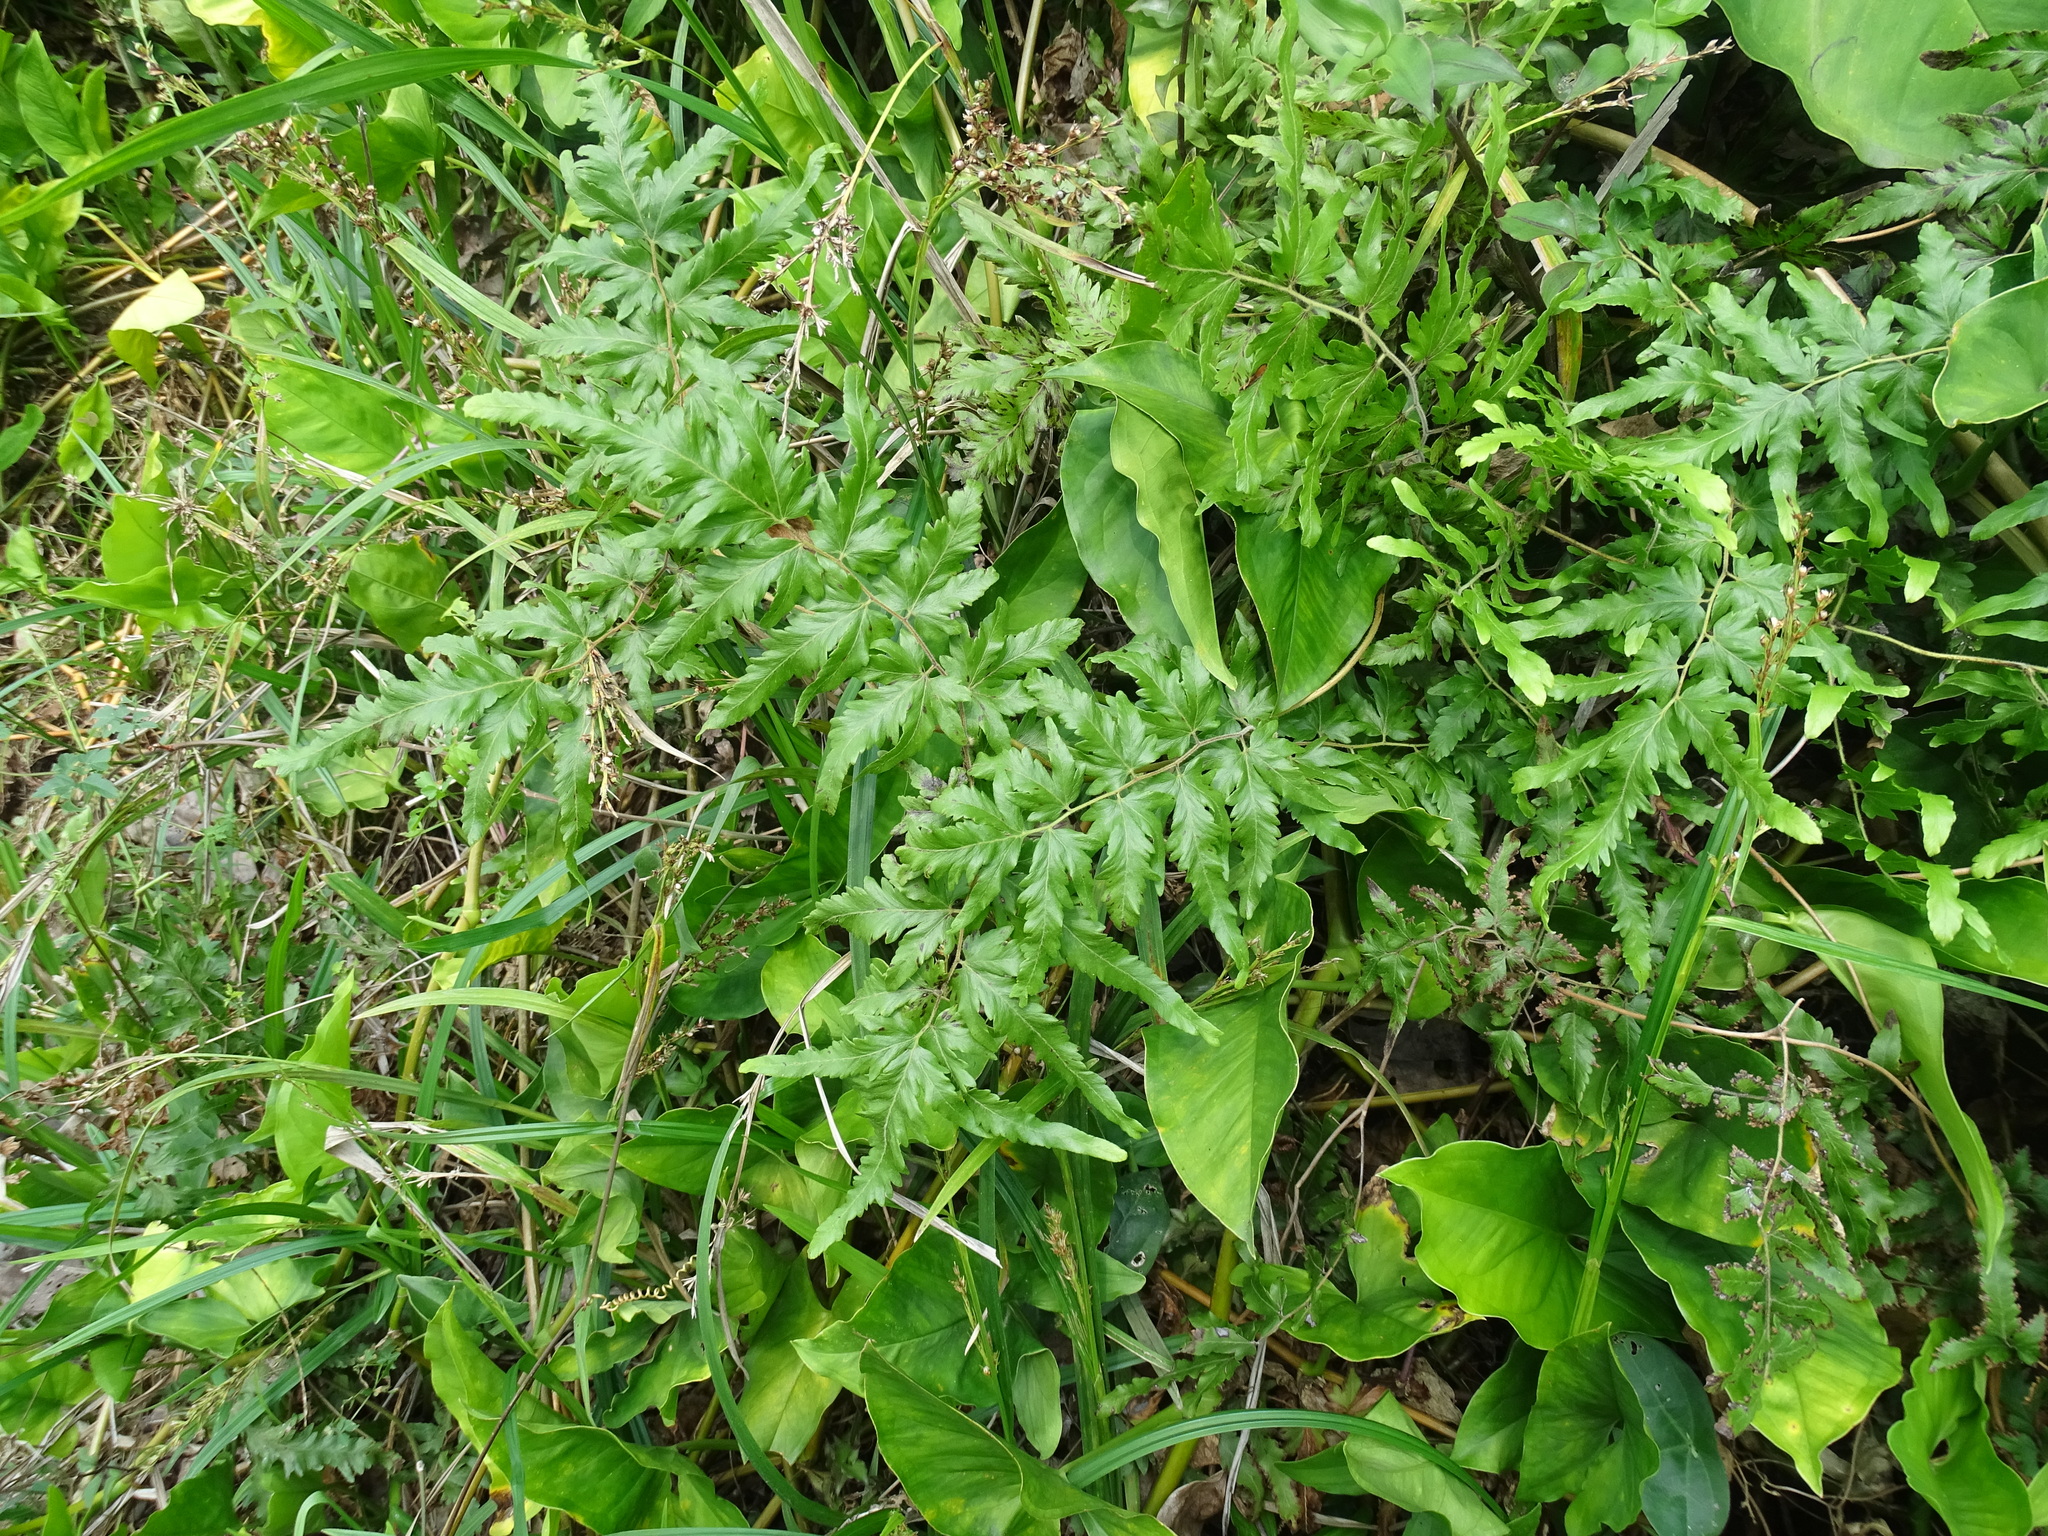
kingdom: Plantae
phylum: Tracheophyta
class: Polypodiopsida
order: Schizaeales
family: Lygodiaceae
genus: Lygodium
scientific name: Lygodium venustum
